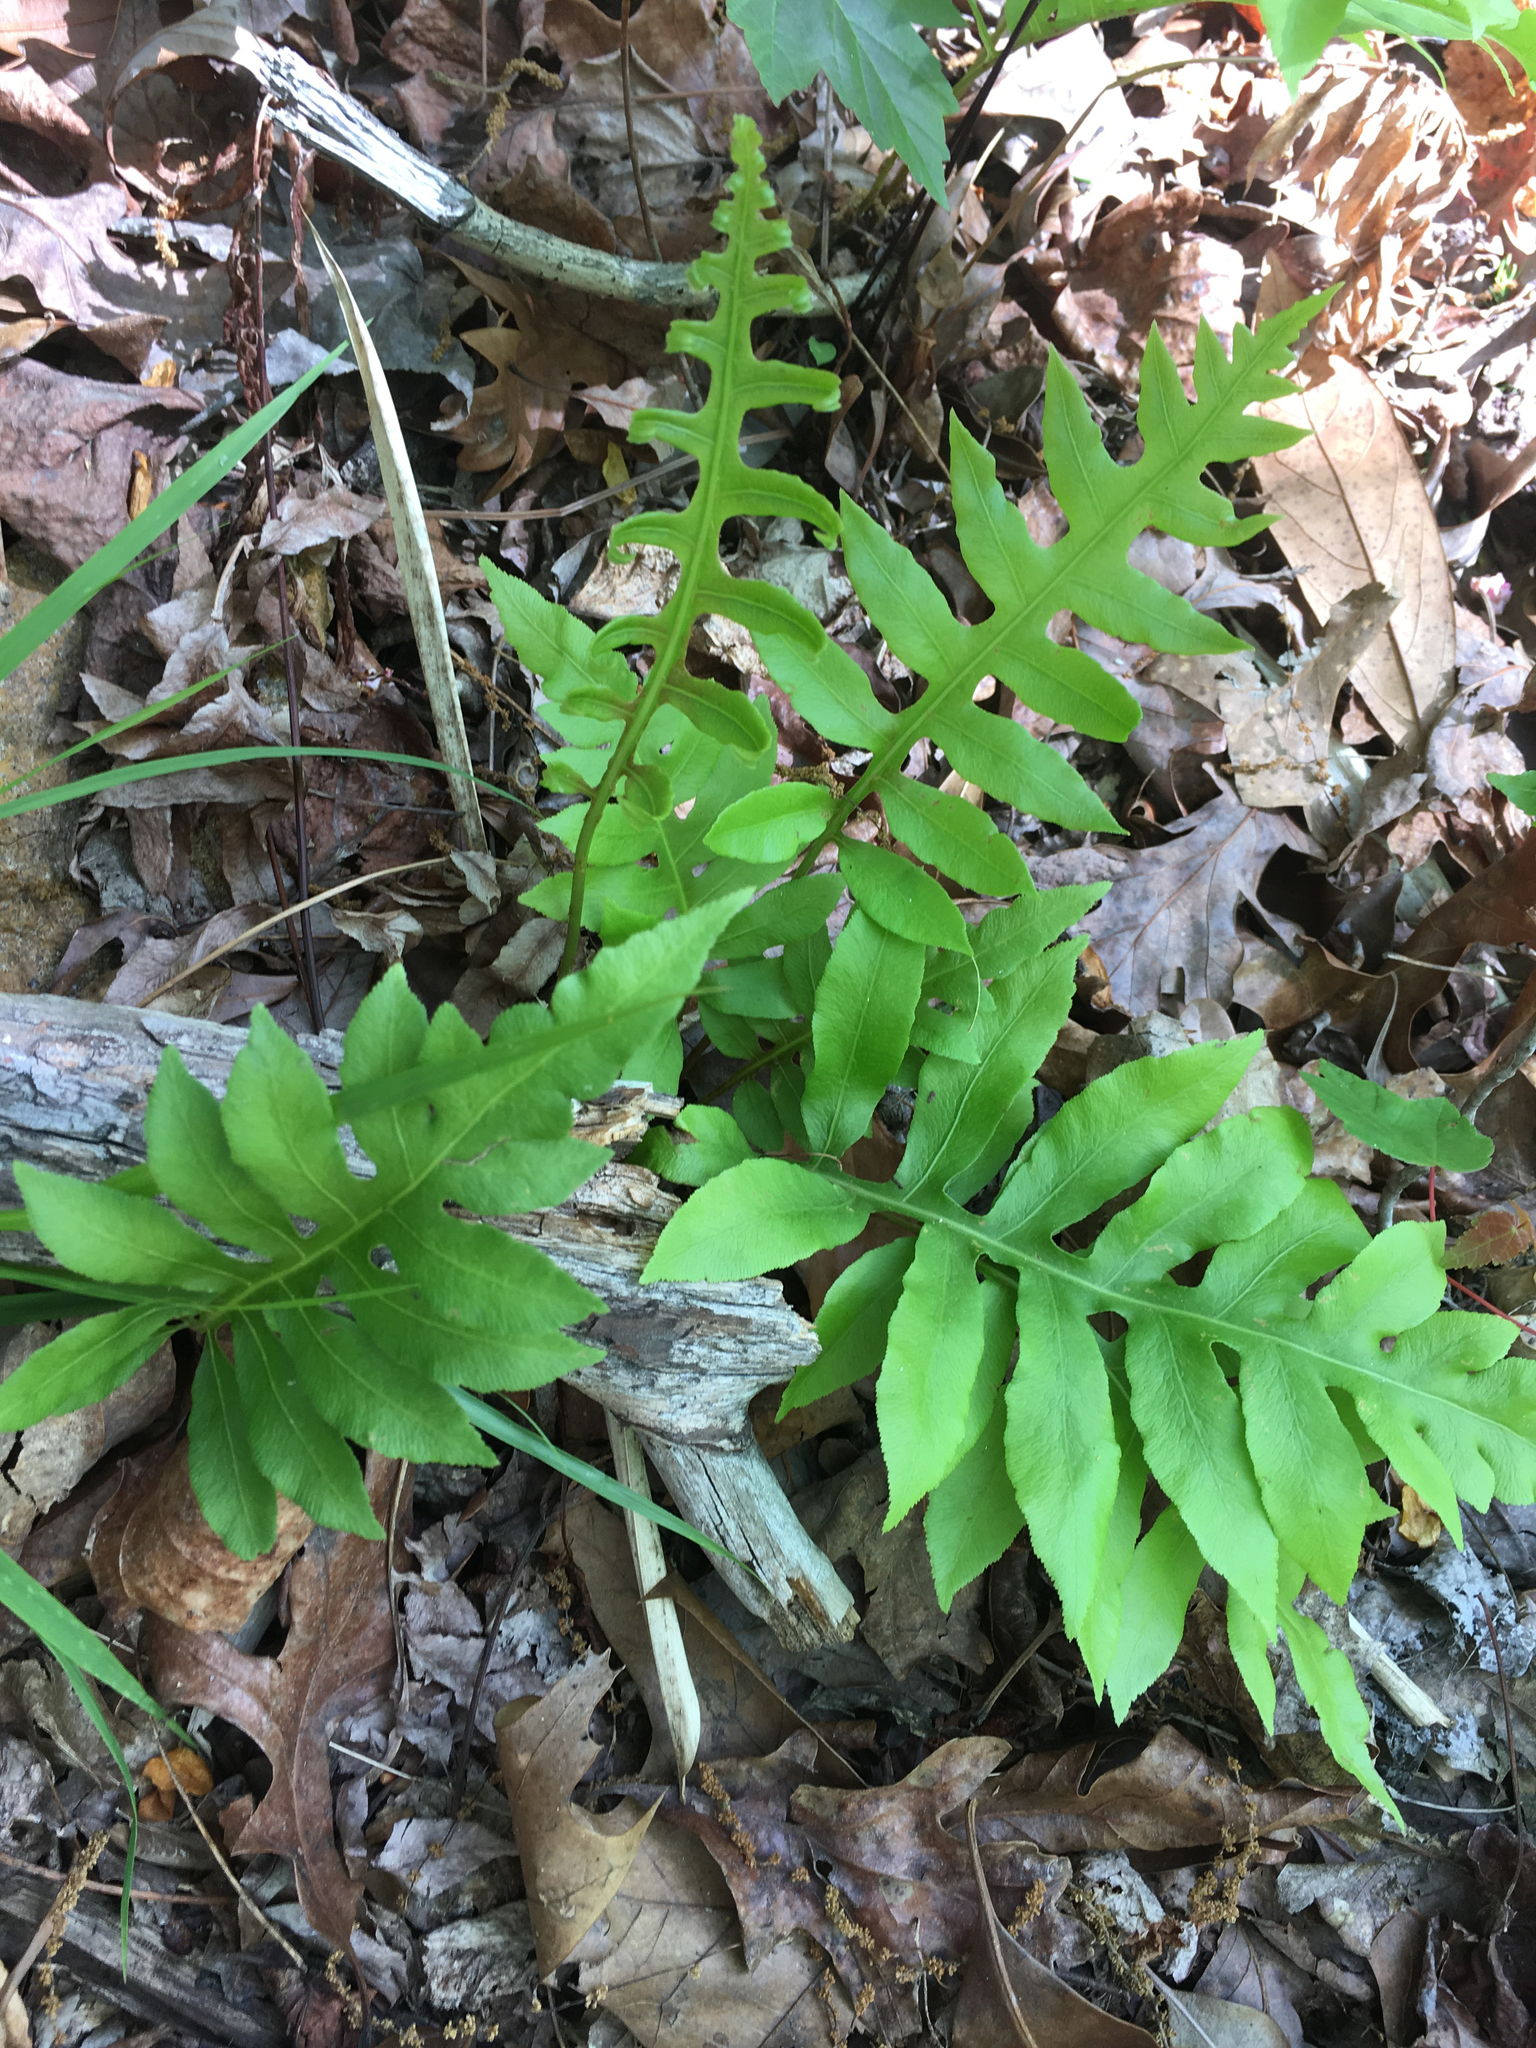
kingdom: Plantae
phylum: Tracheophyta
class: Polypodiopsida
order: Polypodiales
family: Blechnaceae
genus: Lorinseria
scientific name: Lorinseria areolata
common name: Dwarf chain fern
